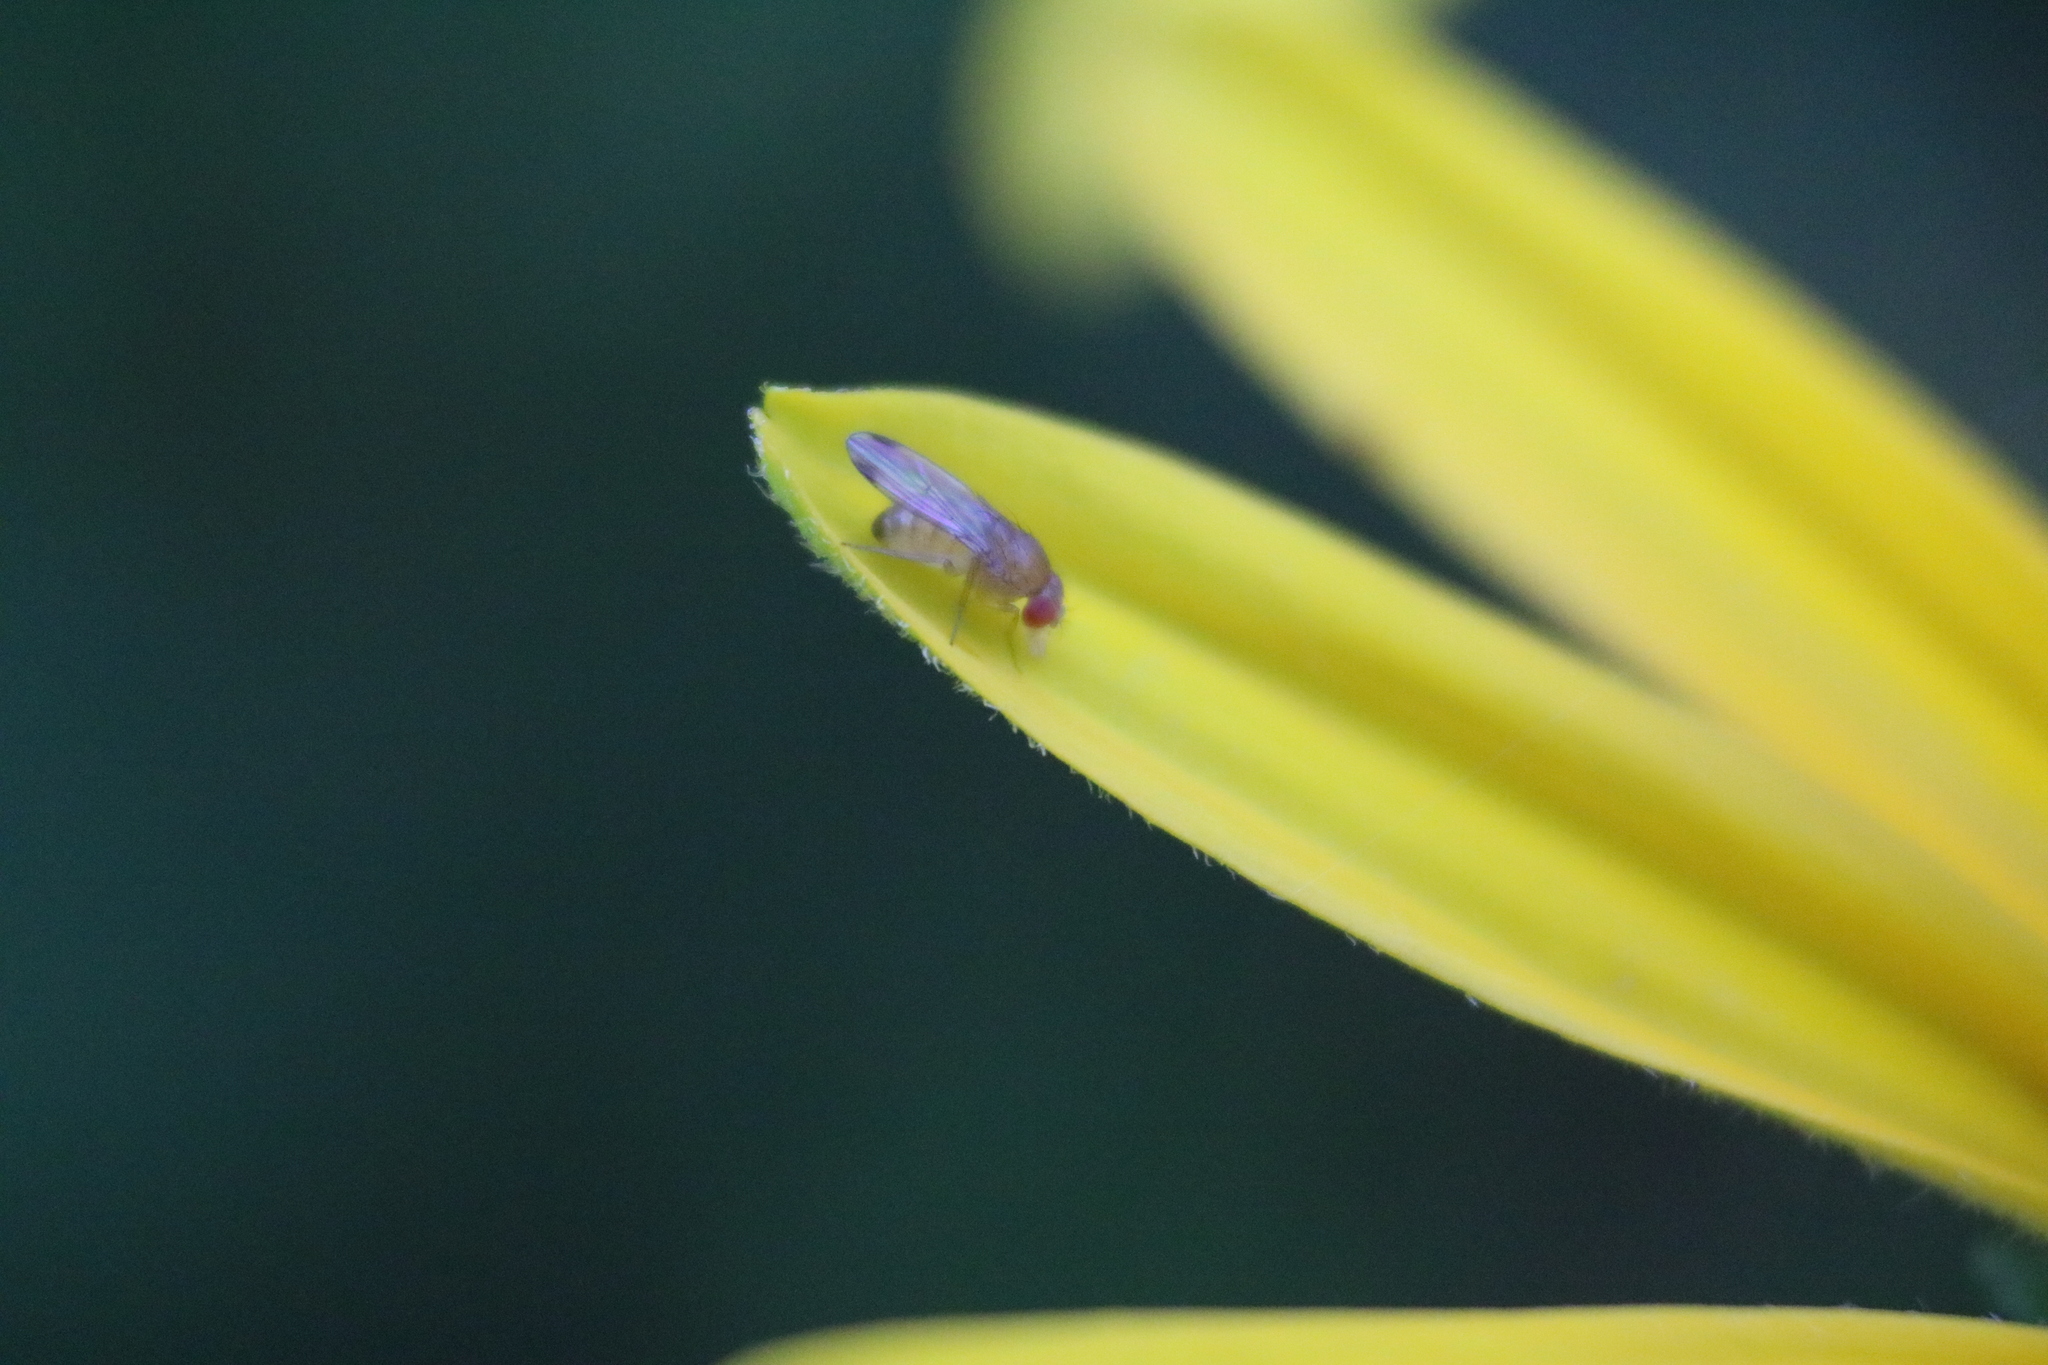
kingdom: Animalia
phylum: Arthropoda
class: Insecta
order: Diptera
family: Drosophilidae
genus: Drosophila
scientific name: Drosophila suzukii
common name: Spotted-wing drosophila
